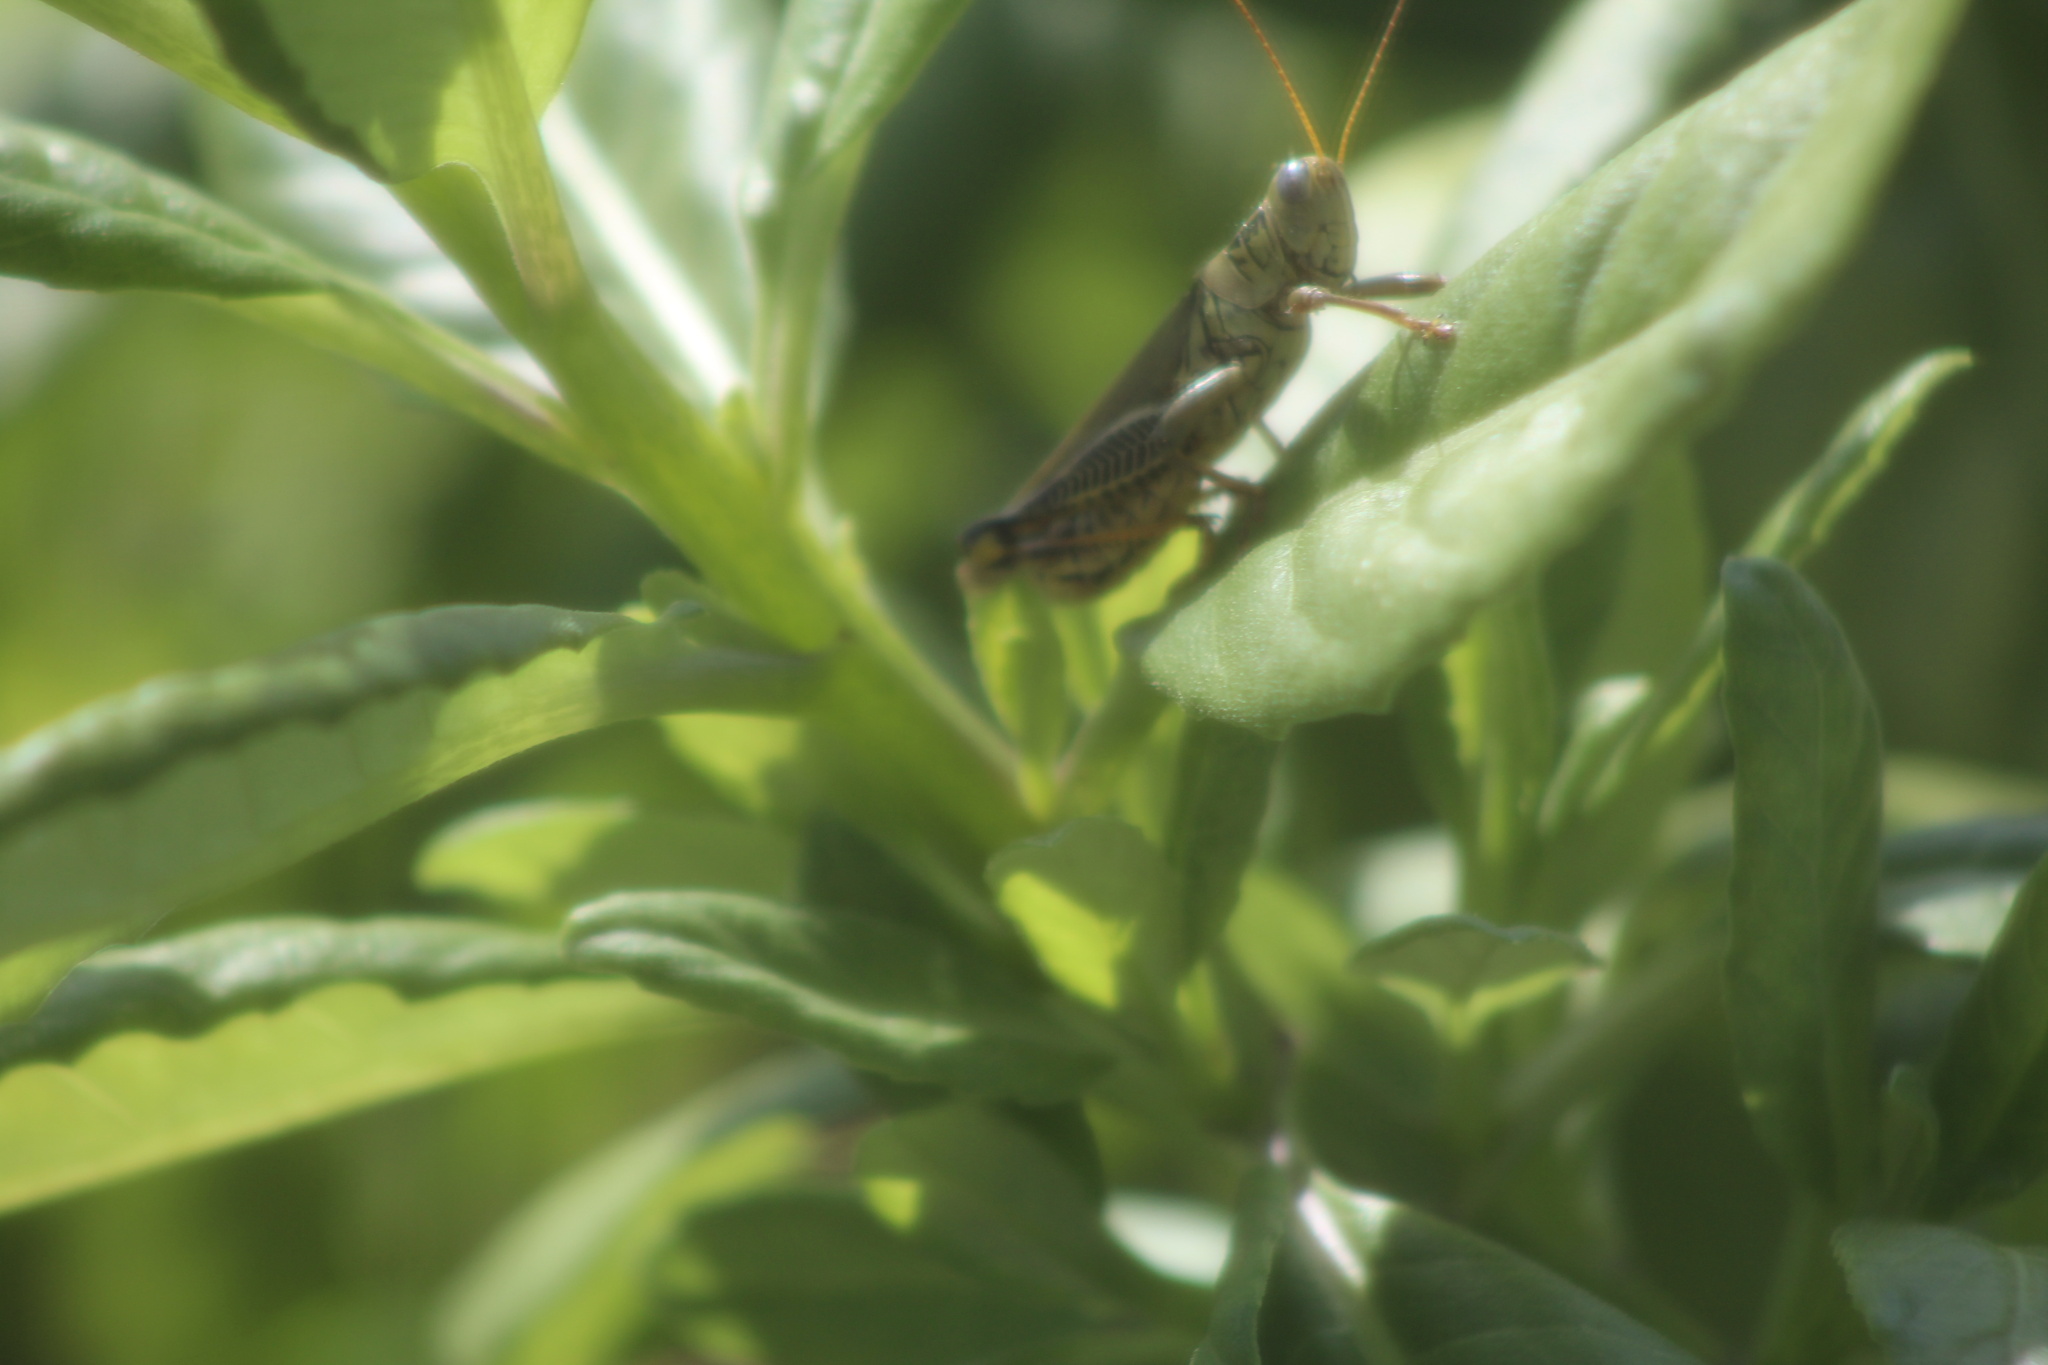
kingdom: Animalia
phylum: Arthropoda
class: Insecta
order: Orthoptera
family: Acrididae
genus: Melanoplus
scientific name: Melanoplus differentialis
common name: Differential grasshopper
